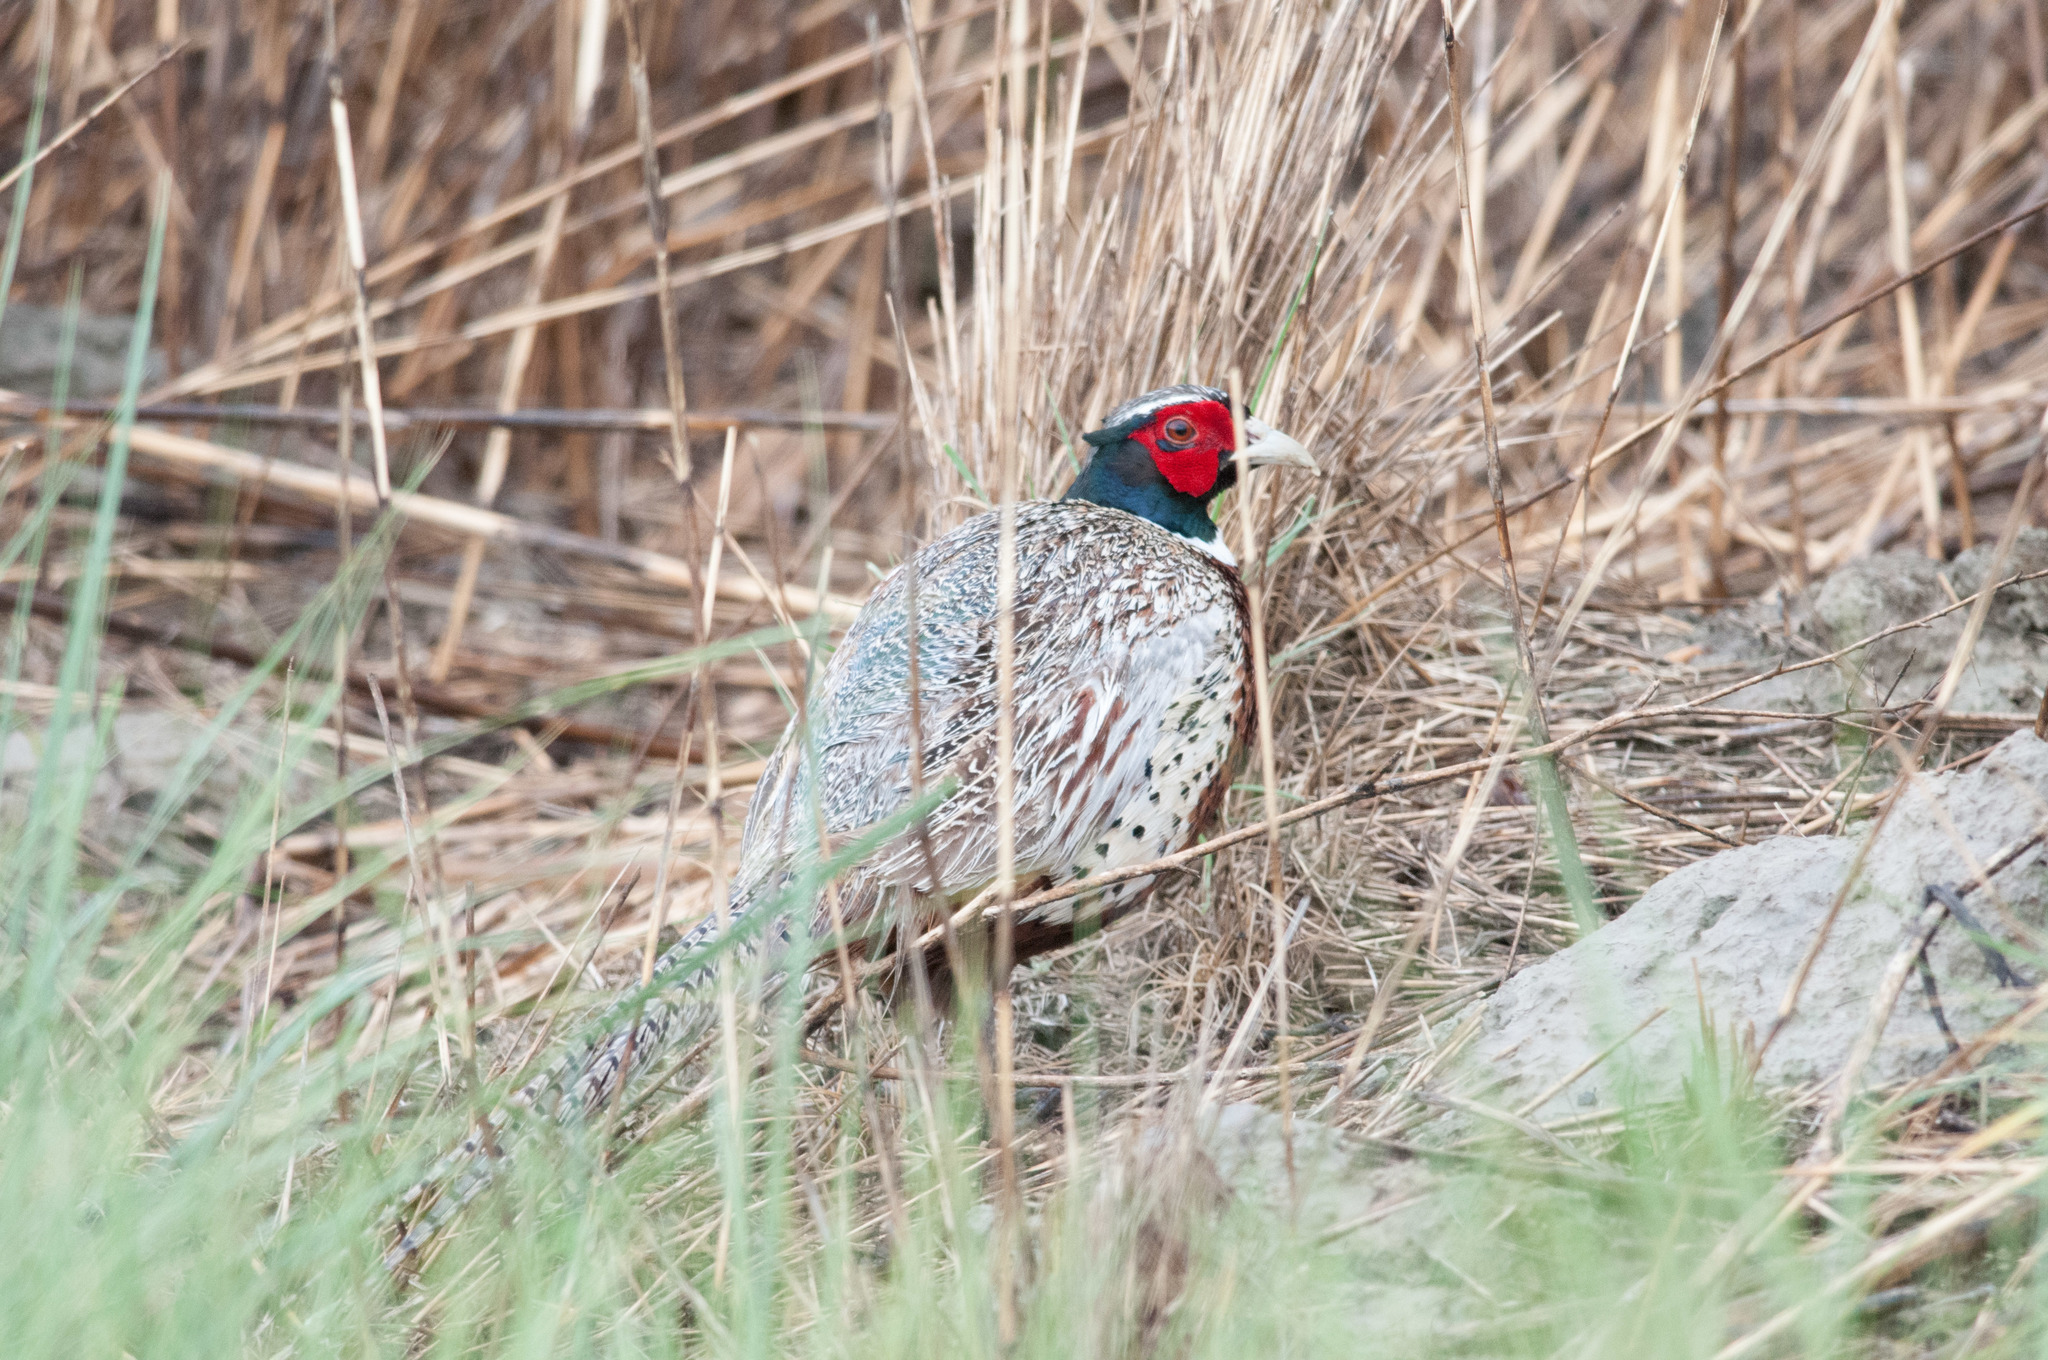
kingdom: Animalia
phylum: Chordata
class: Aves
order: Galliformes
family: Phasianidae
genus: Phasianus
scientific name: Phasianus colchicus
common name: Common pheasant
